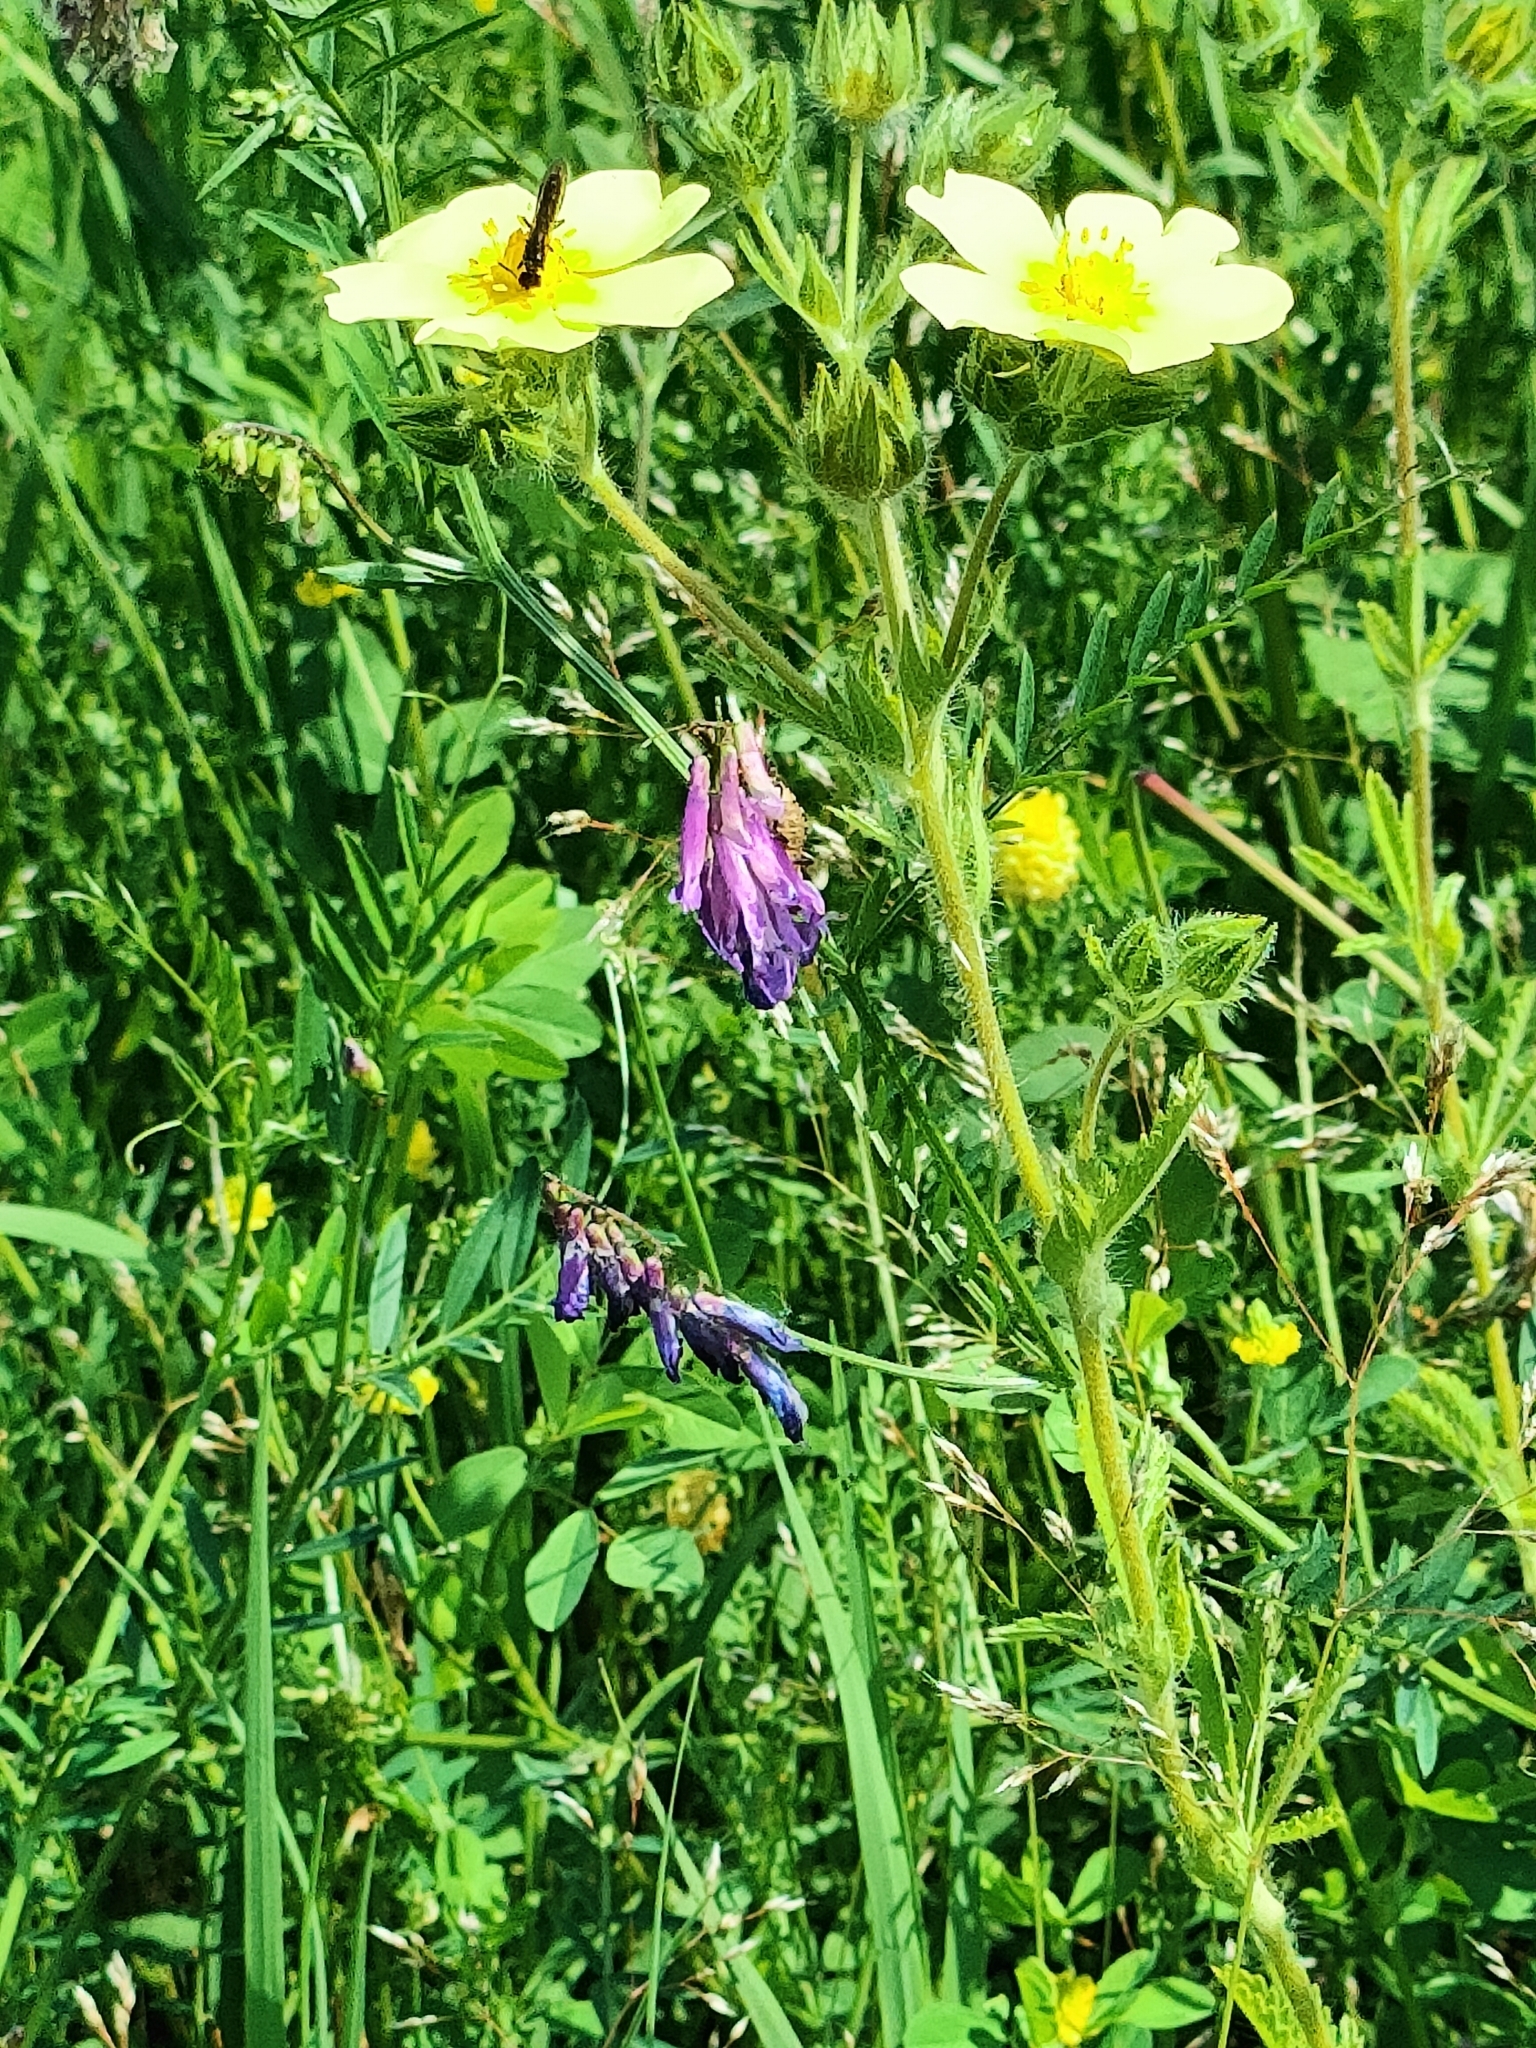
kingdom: Plantae
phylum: Tracheophyta
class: Magnoliopsida
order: Rosales
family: Rosaceae
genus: Potentilla
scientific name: Potentilla recta
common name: Sulphur cinquefoil
